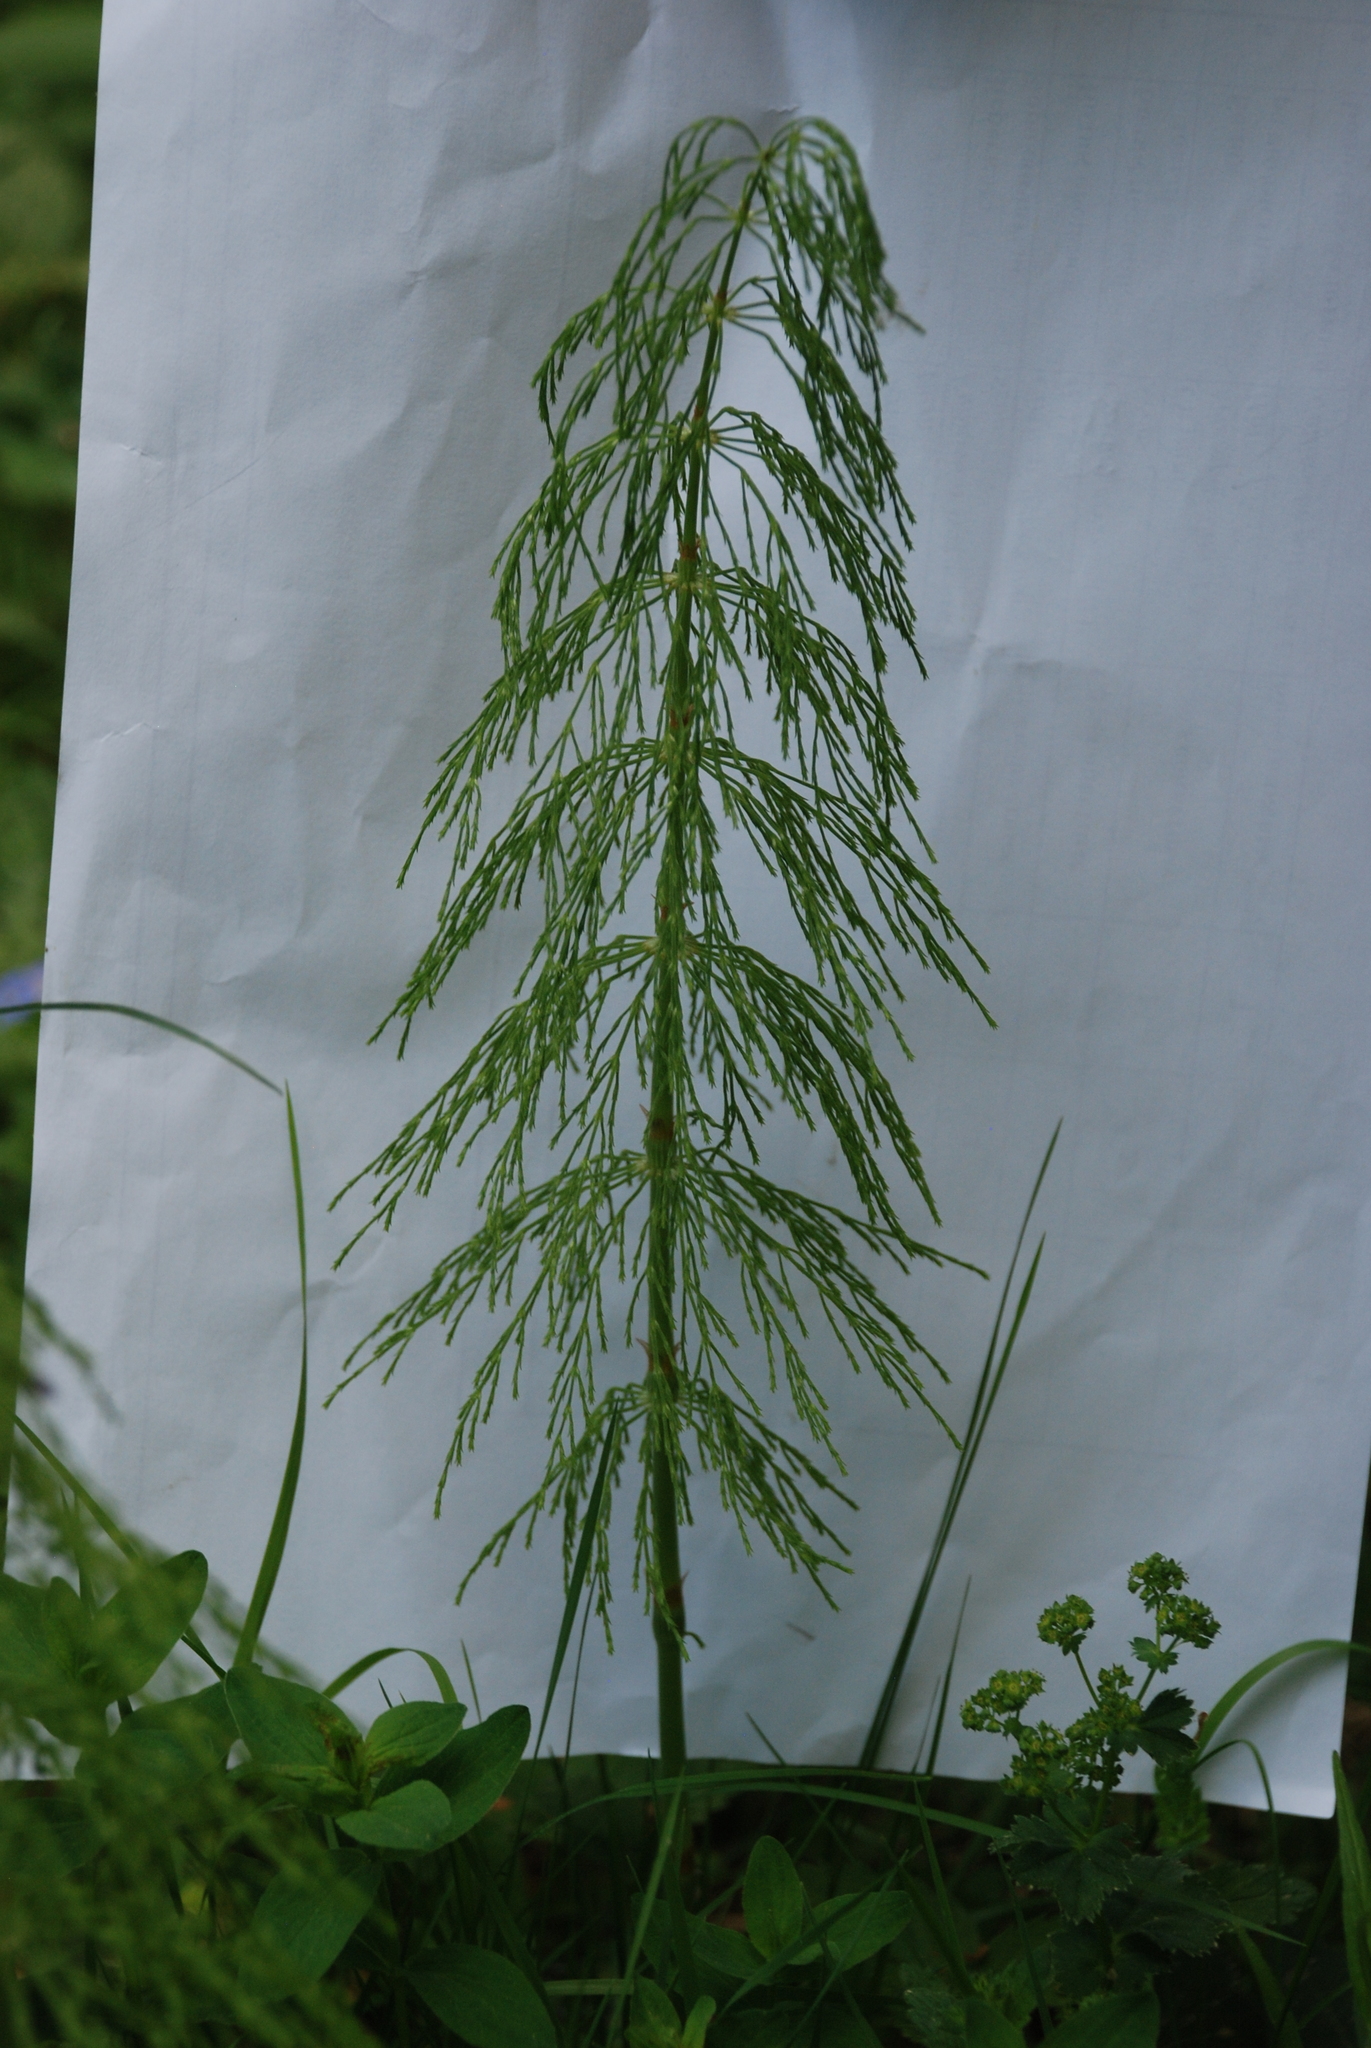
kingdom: Plantae
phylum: Tracheophyta
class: Polypodiopsida
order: Equisetales
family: Equisetaceae
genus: Equisetum
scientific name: Equisetum sylvaticum
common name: Wood horsetail
